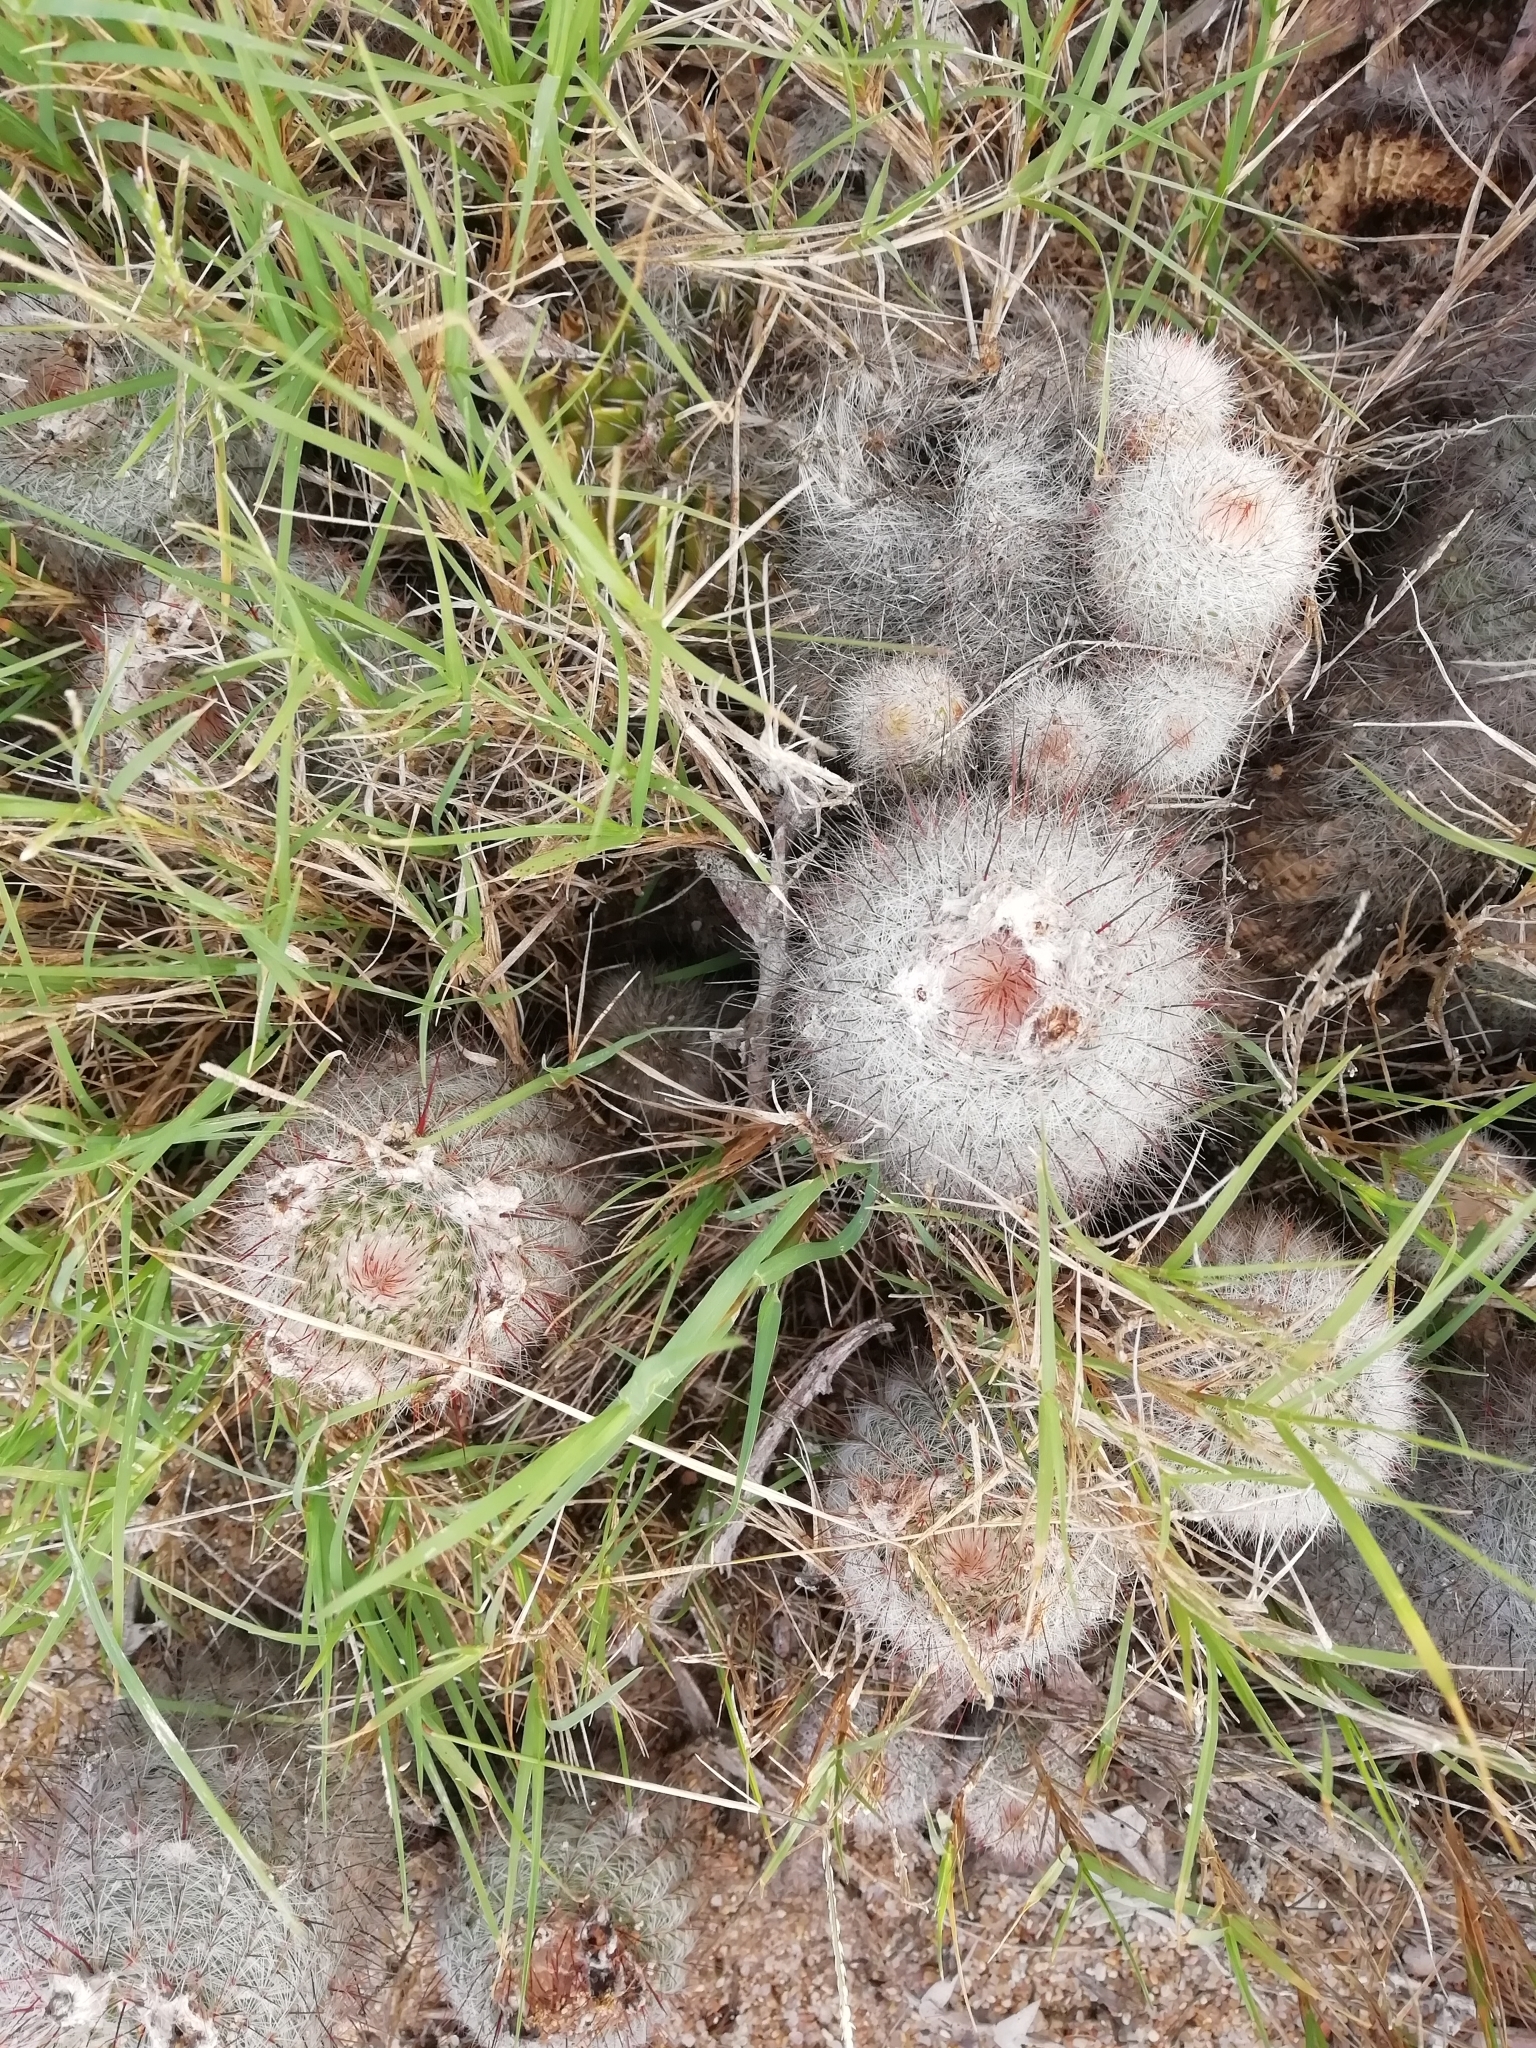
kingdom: Plantae
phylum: Tracheophyta
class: Magnoliopsida
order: Caryophyllales
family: Cactaceae
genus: Parodia
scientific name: Parodia scopa
